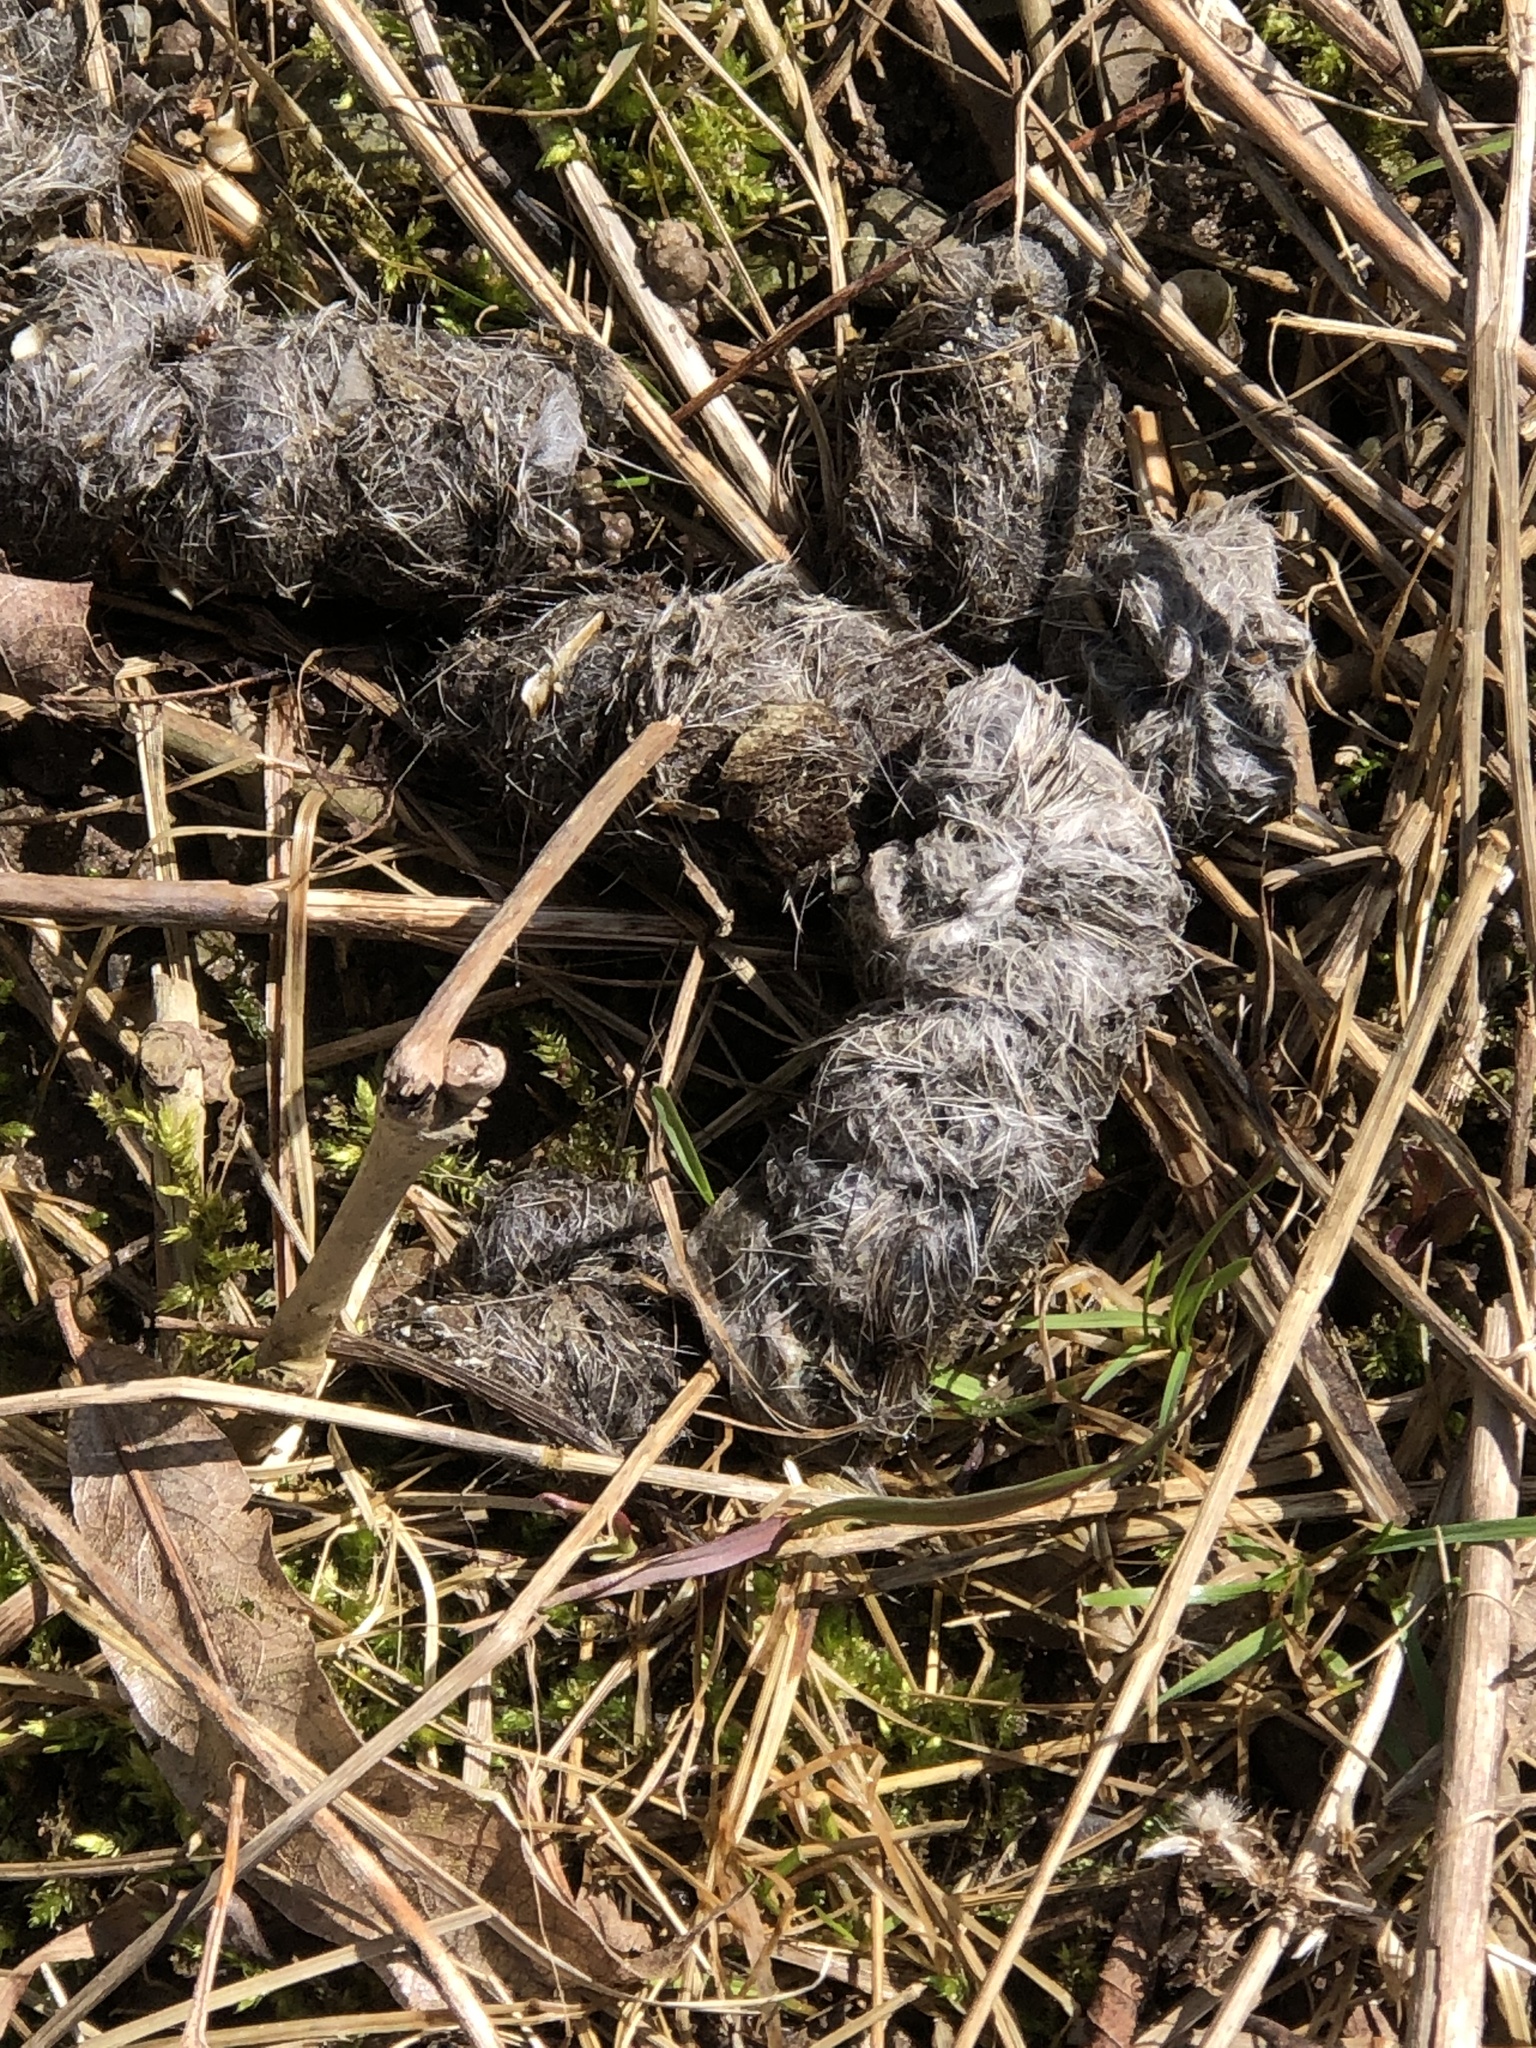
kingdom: Animalia
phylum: Chordata
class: Mammalia
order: Carnivora
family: Canidae
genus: Canis
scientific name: Canis latrans
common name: Coyote
